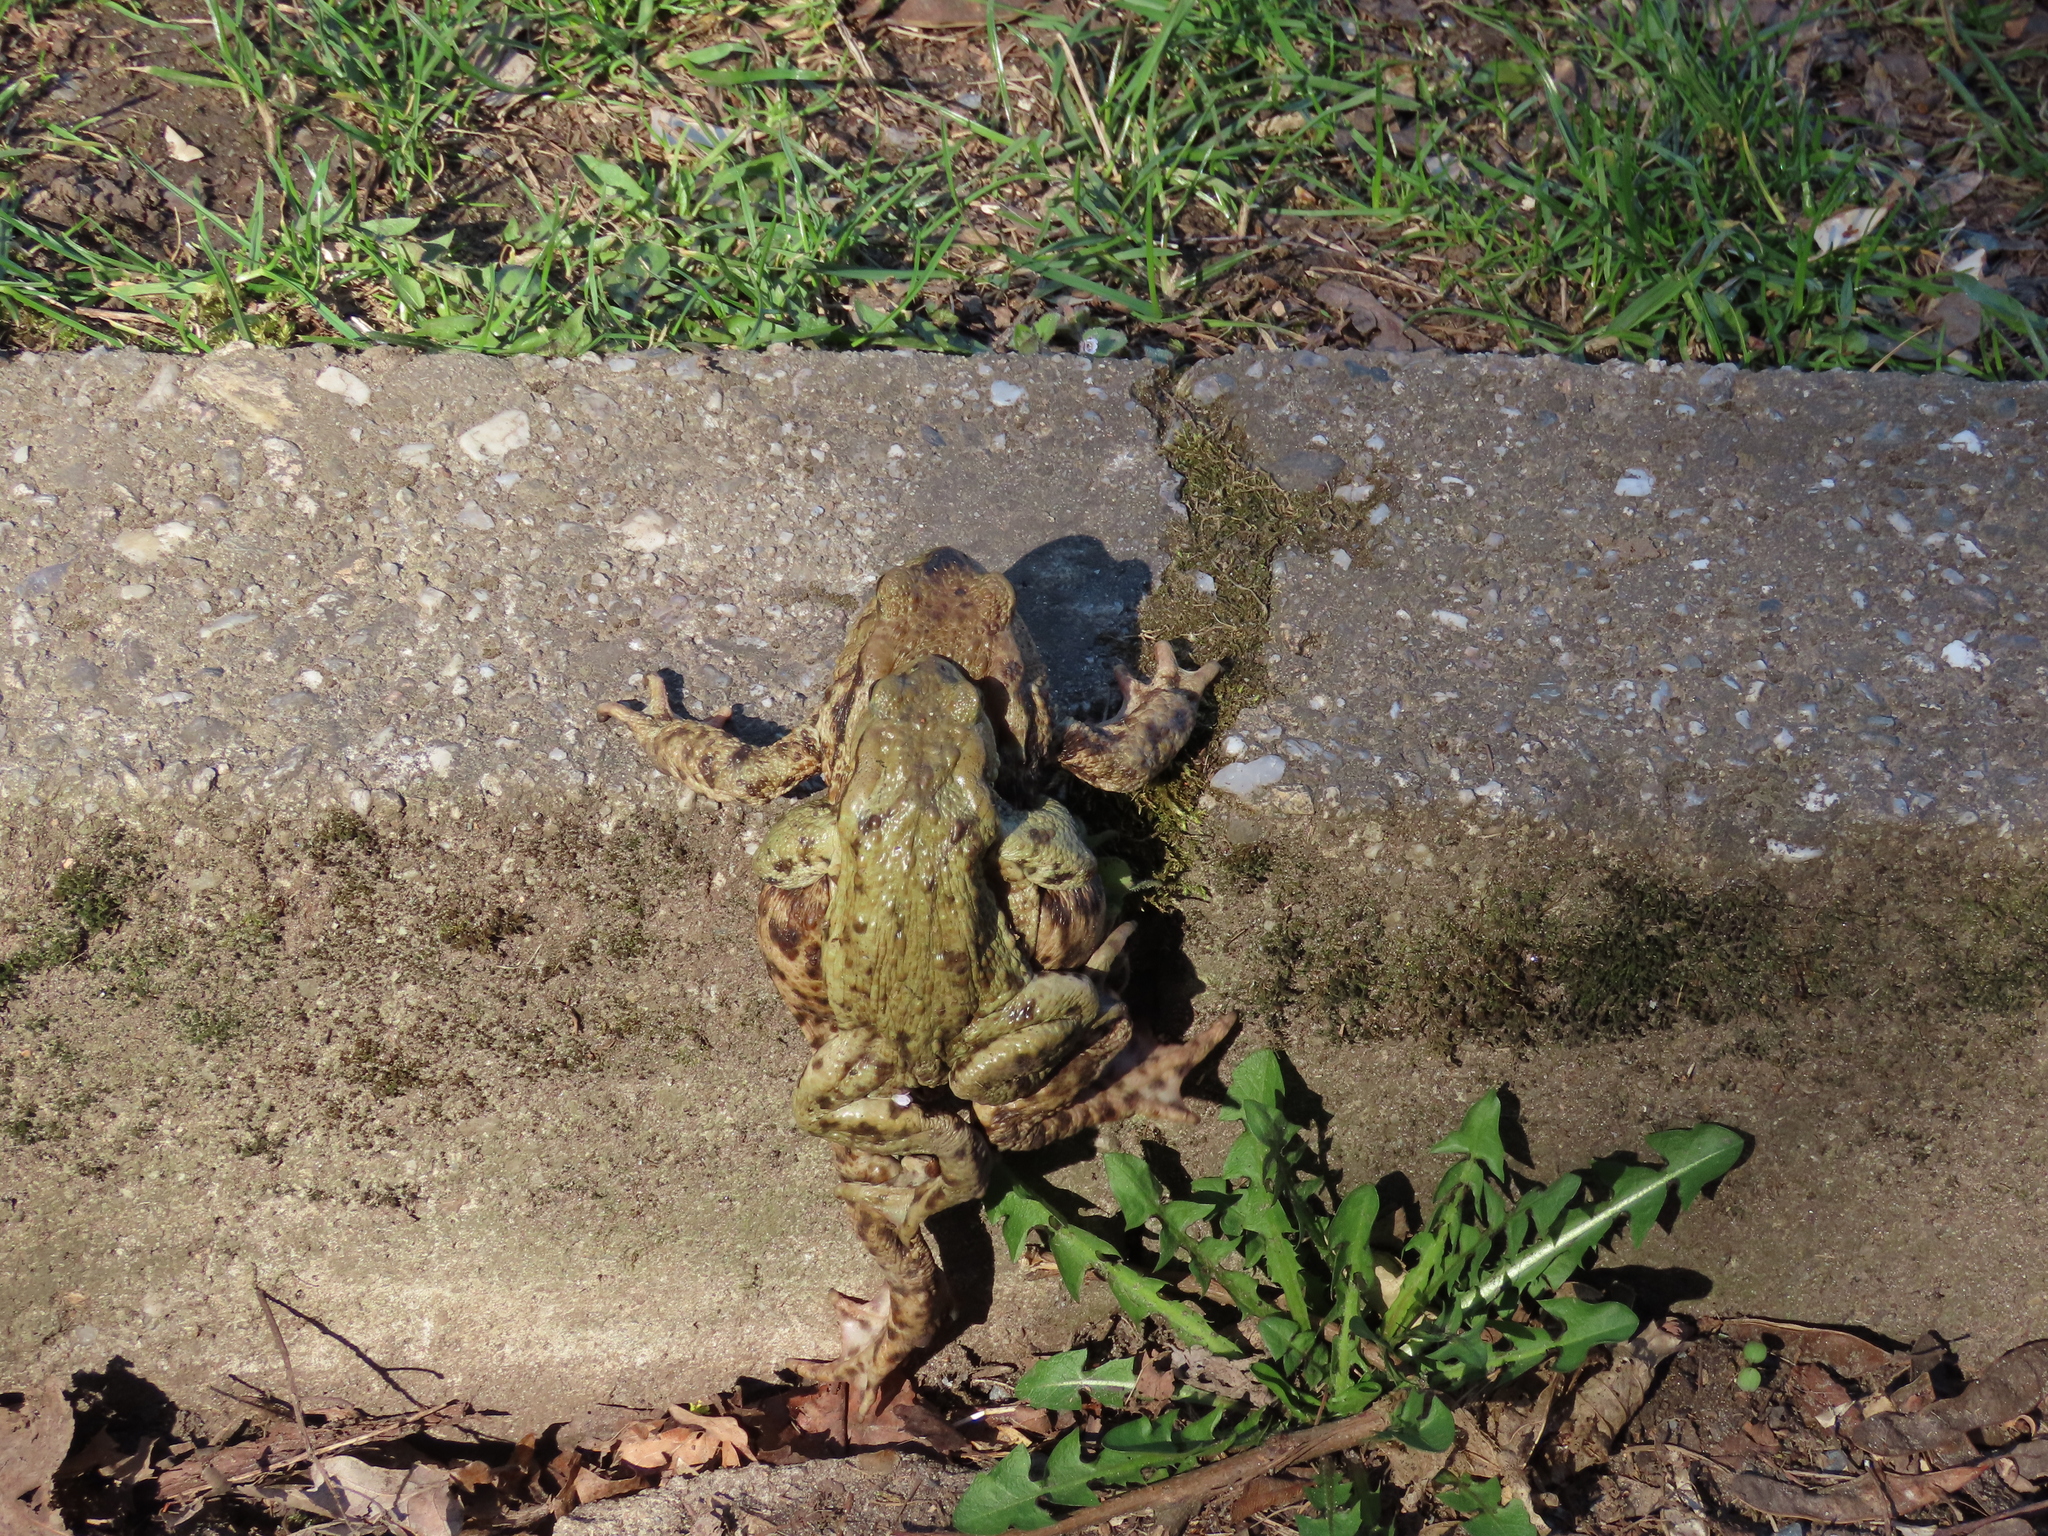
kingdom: Animalia
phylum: Chordata
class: Amphibia
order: Anura
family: Bufonidae
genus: Bufo
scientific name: Bufo bufo
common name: Common toad
